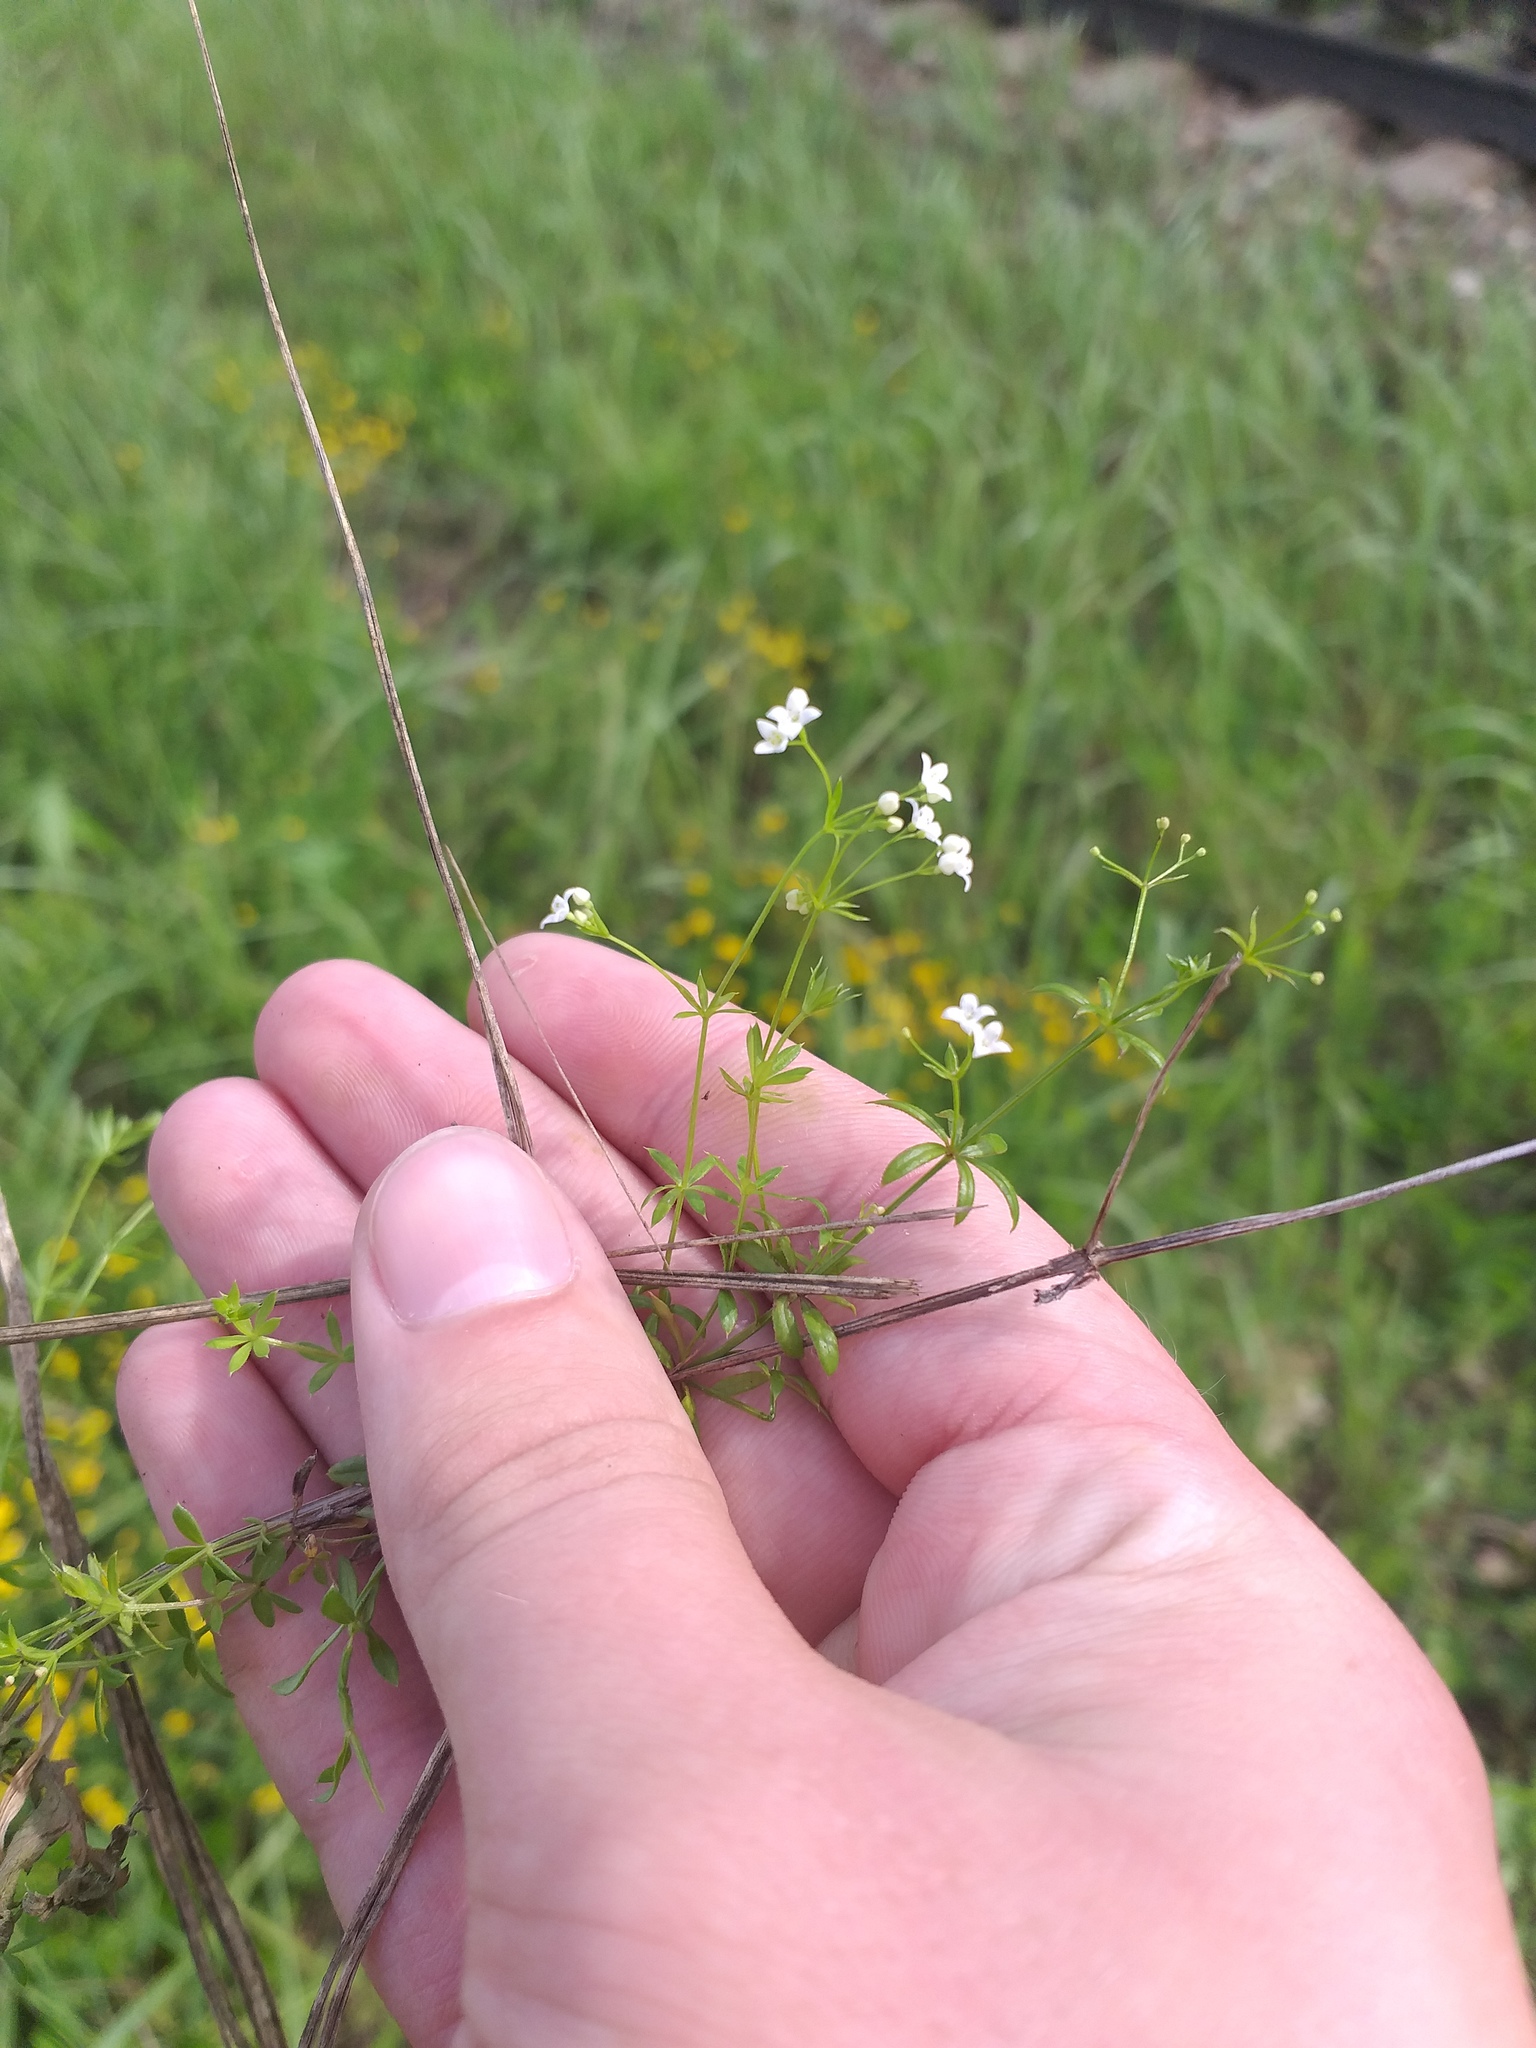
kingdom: Plantae
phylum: Tracheophyta
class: Magnoliopsida
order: Gentianales
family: Rubiaceae
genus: Galium
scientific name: Galium uliginosum
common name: Fen bedstraw
